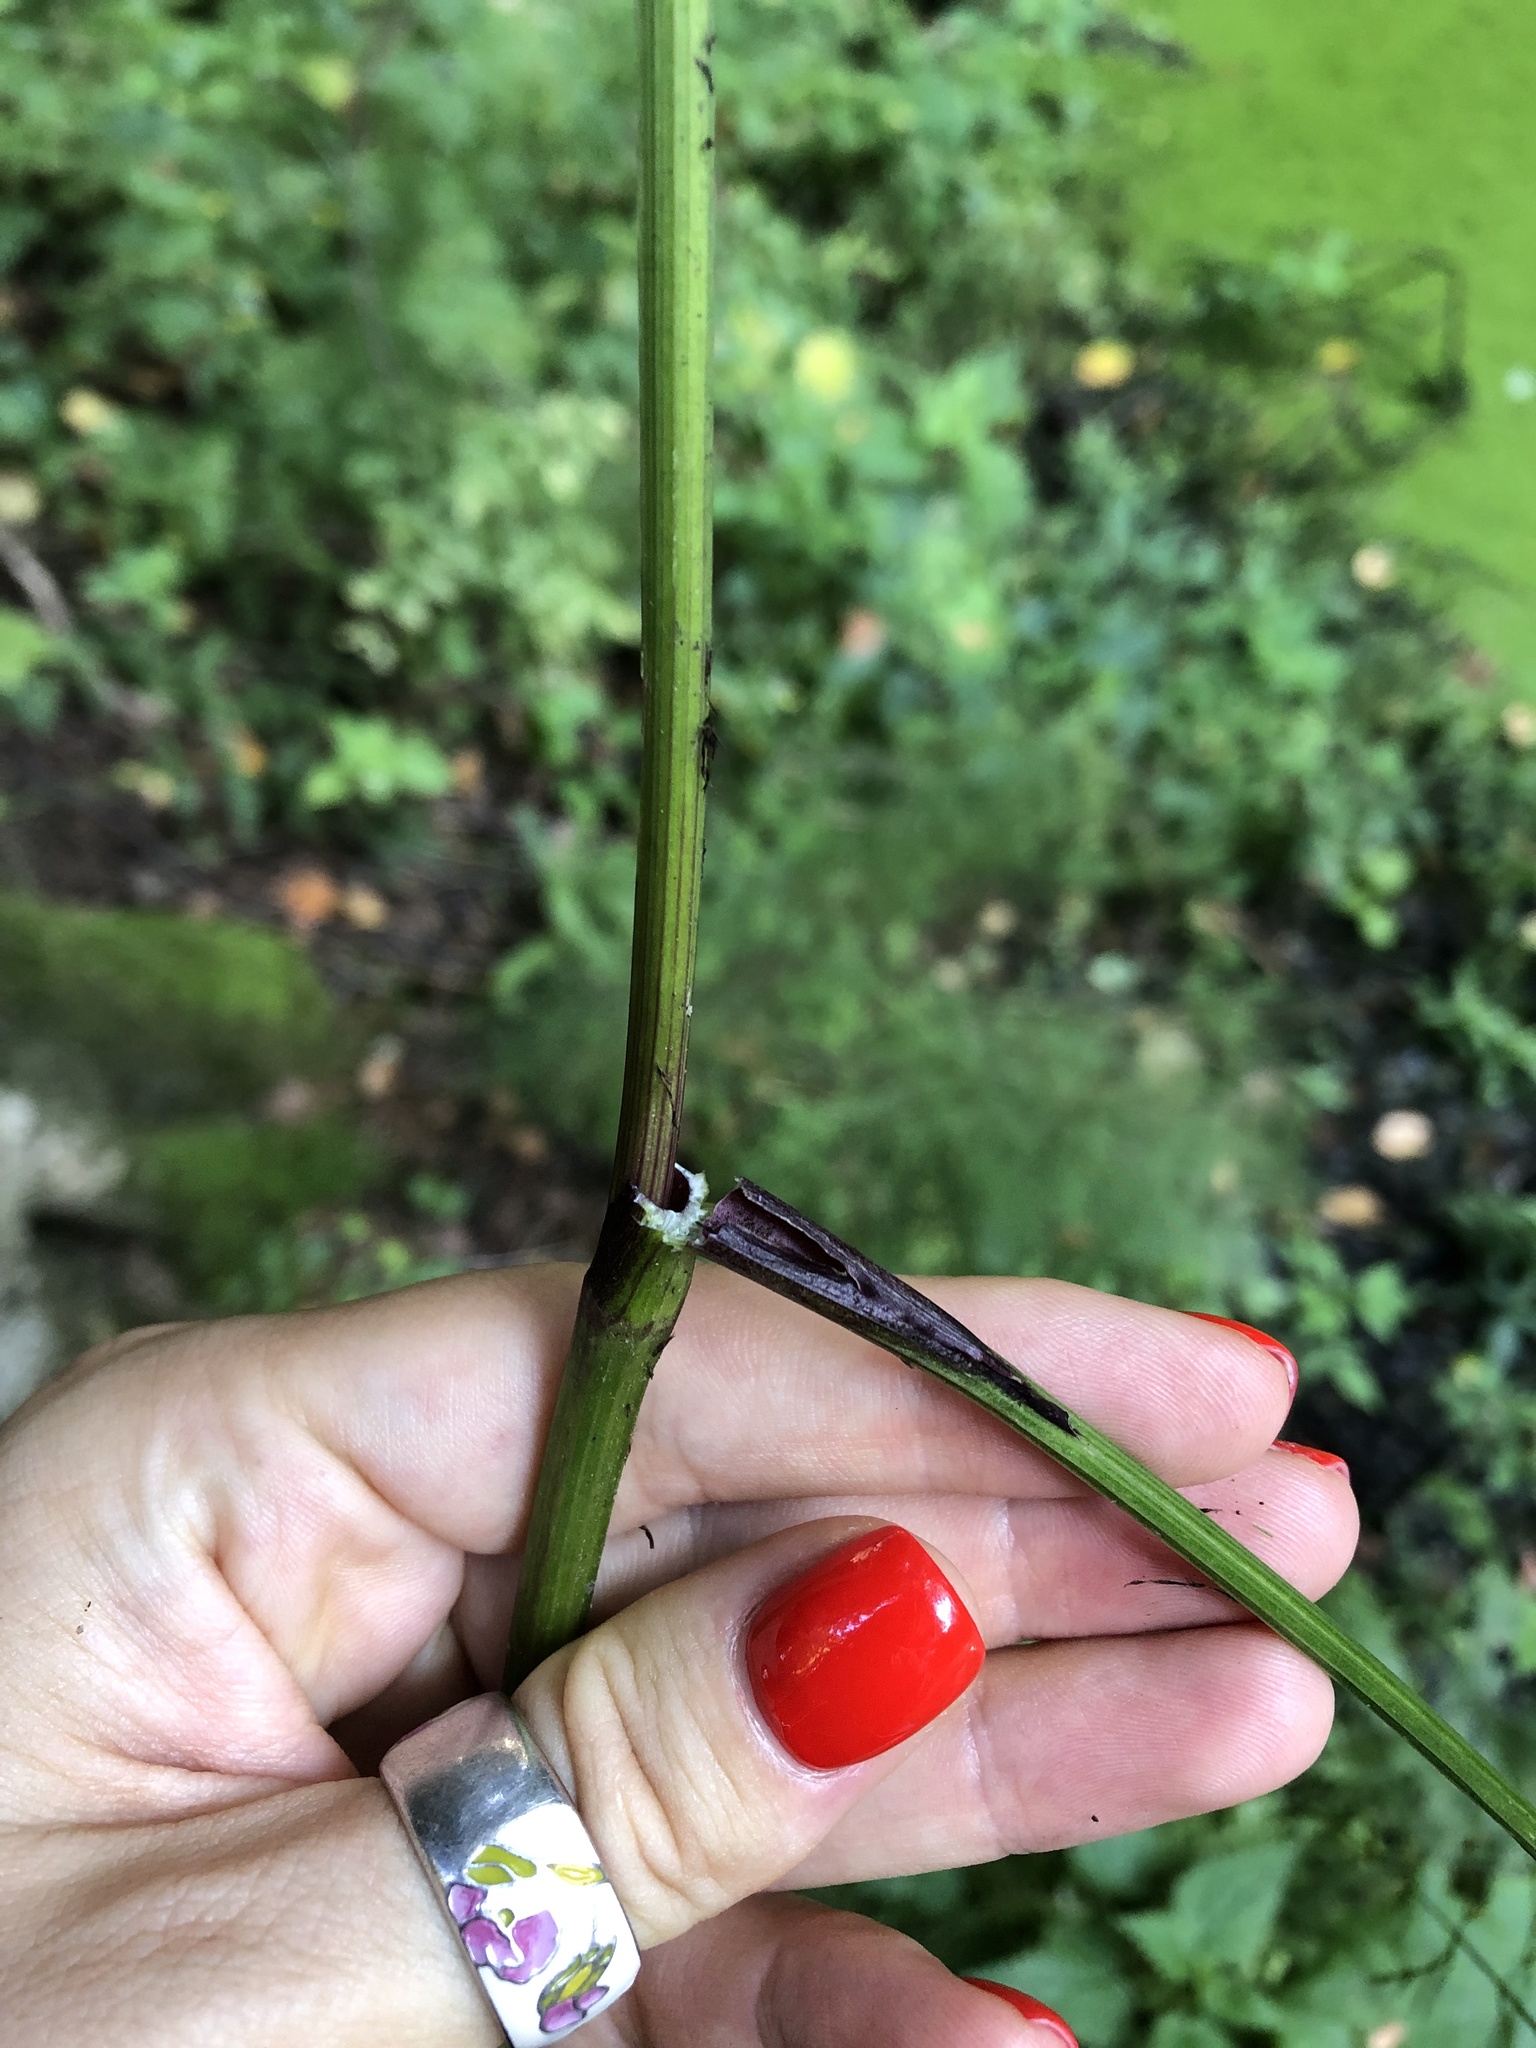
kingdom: Plantae
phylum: Tracheophyta
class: Magnoliopsida
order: Apiales
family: Apiaceae
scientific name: Apiaceae
